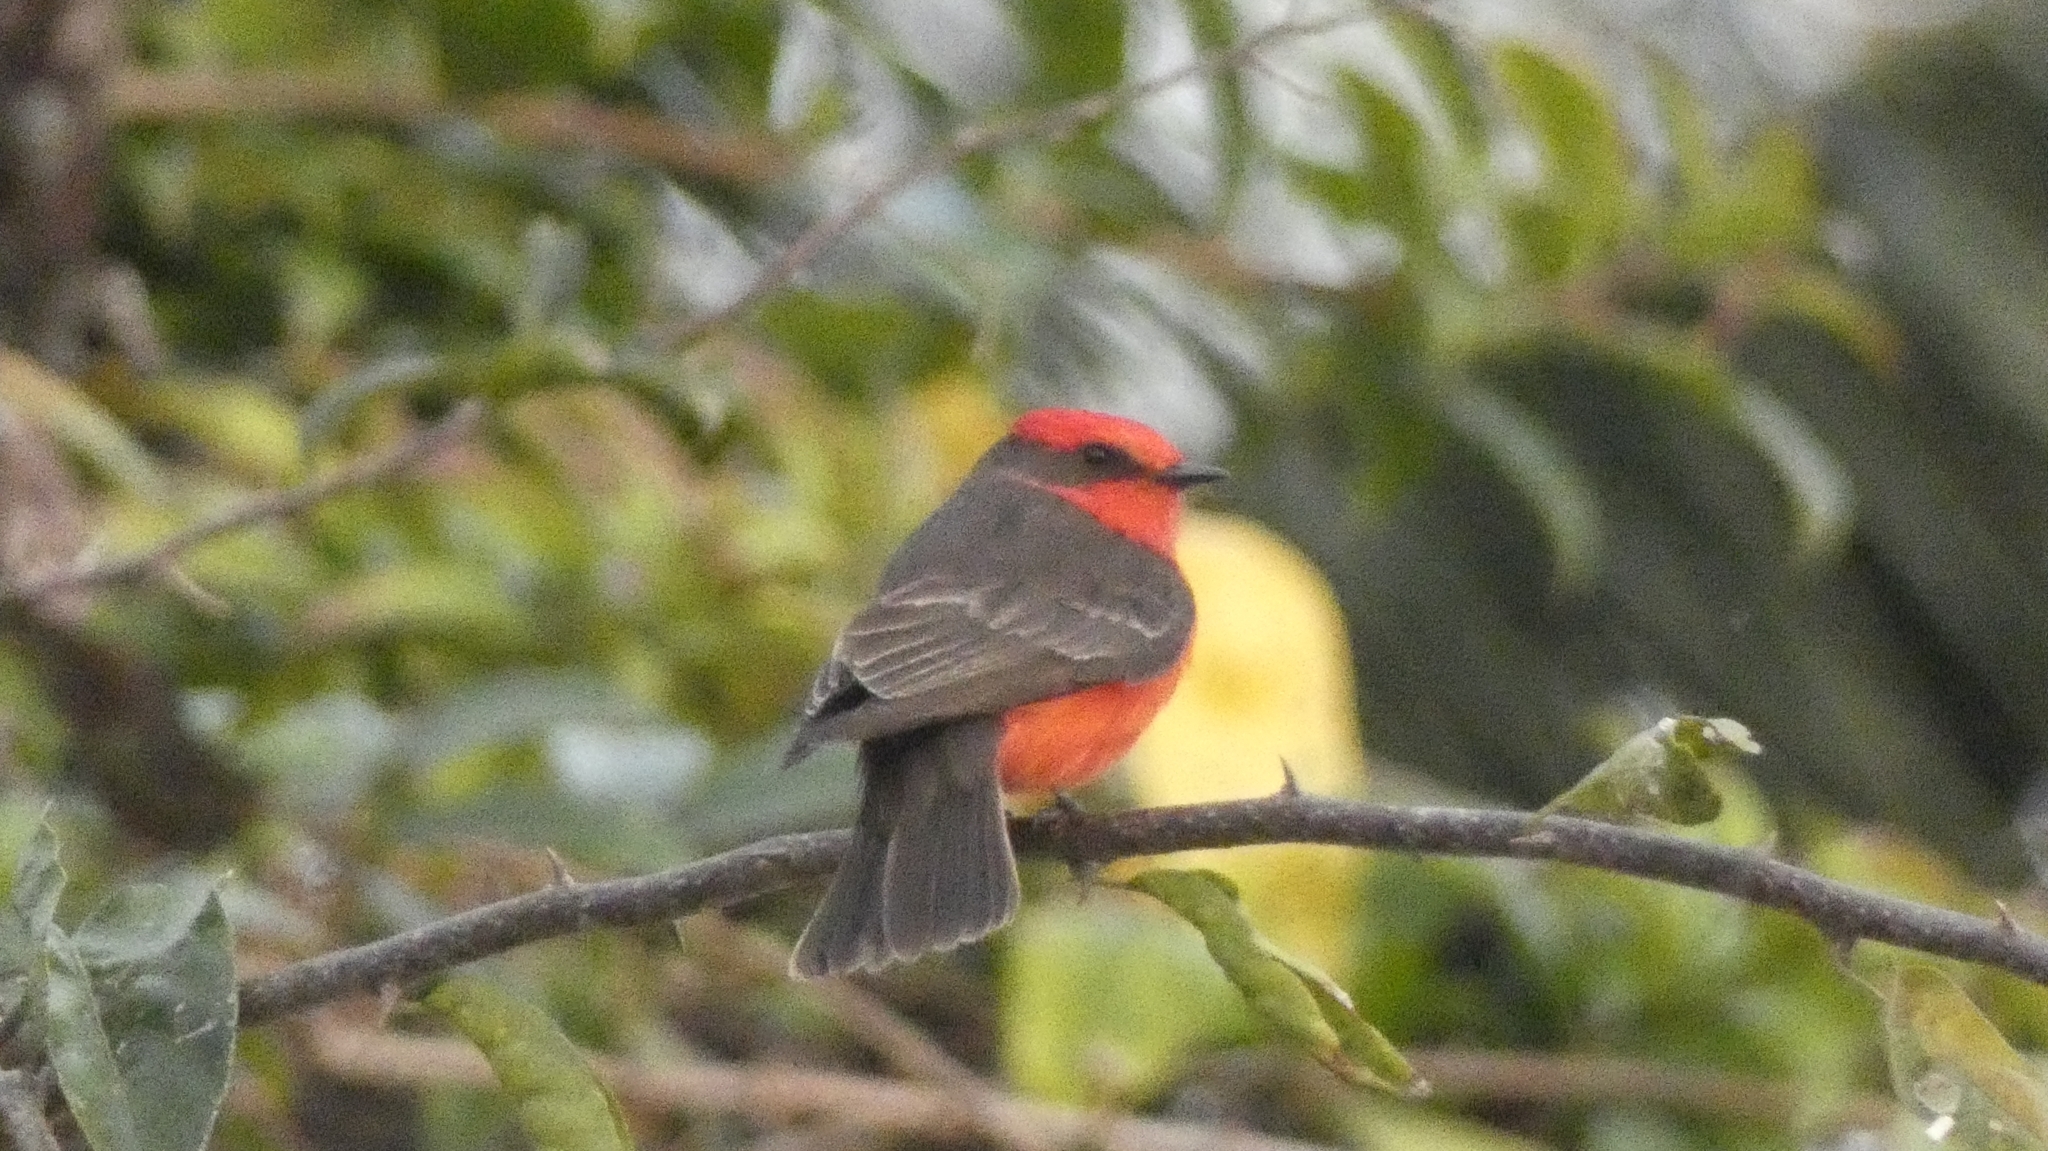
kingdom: Animalia
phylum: Chordata
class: Aves
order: Passeriformes
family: Tyrannidae
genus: Pyrocephalus
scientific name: Pyrocephalus rubinus
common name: Vermilion flycatcher
